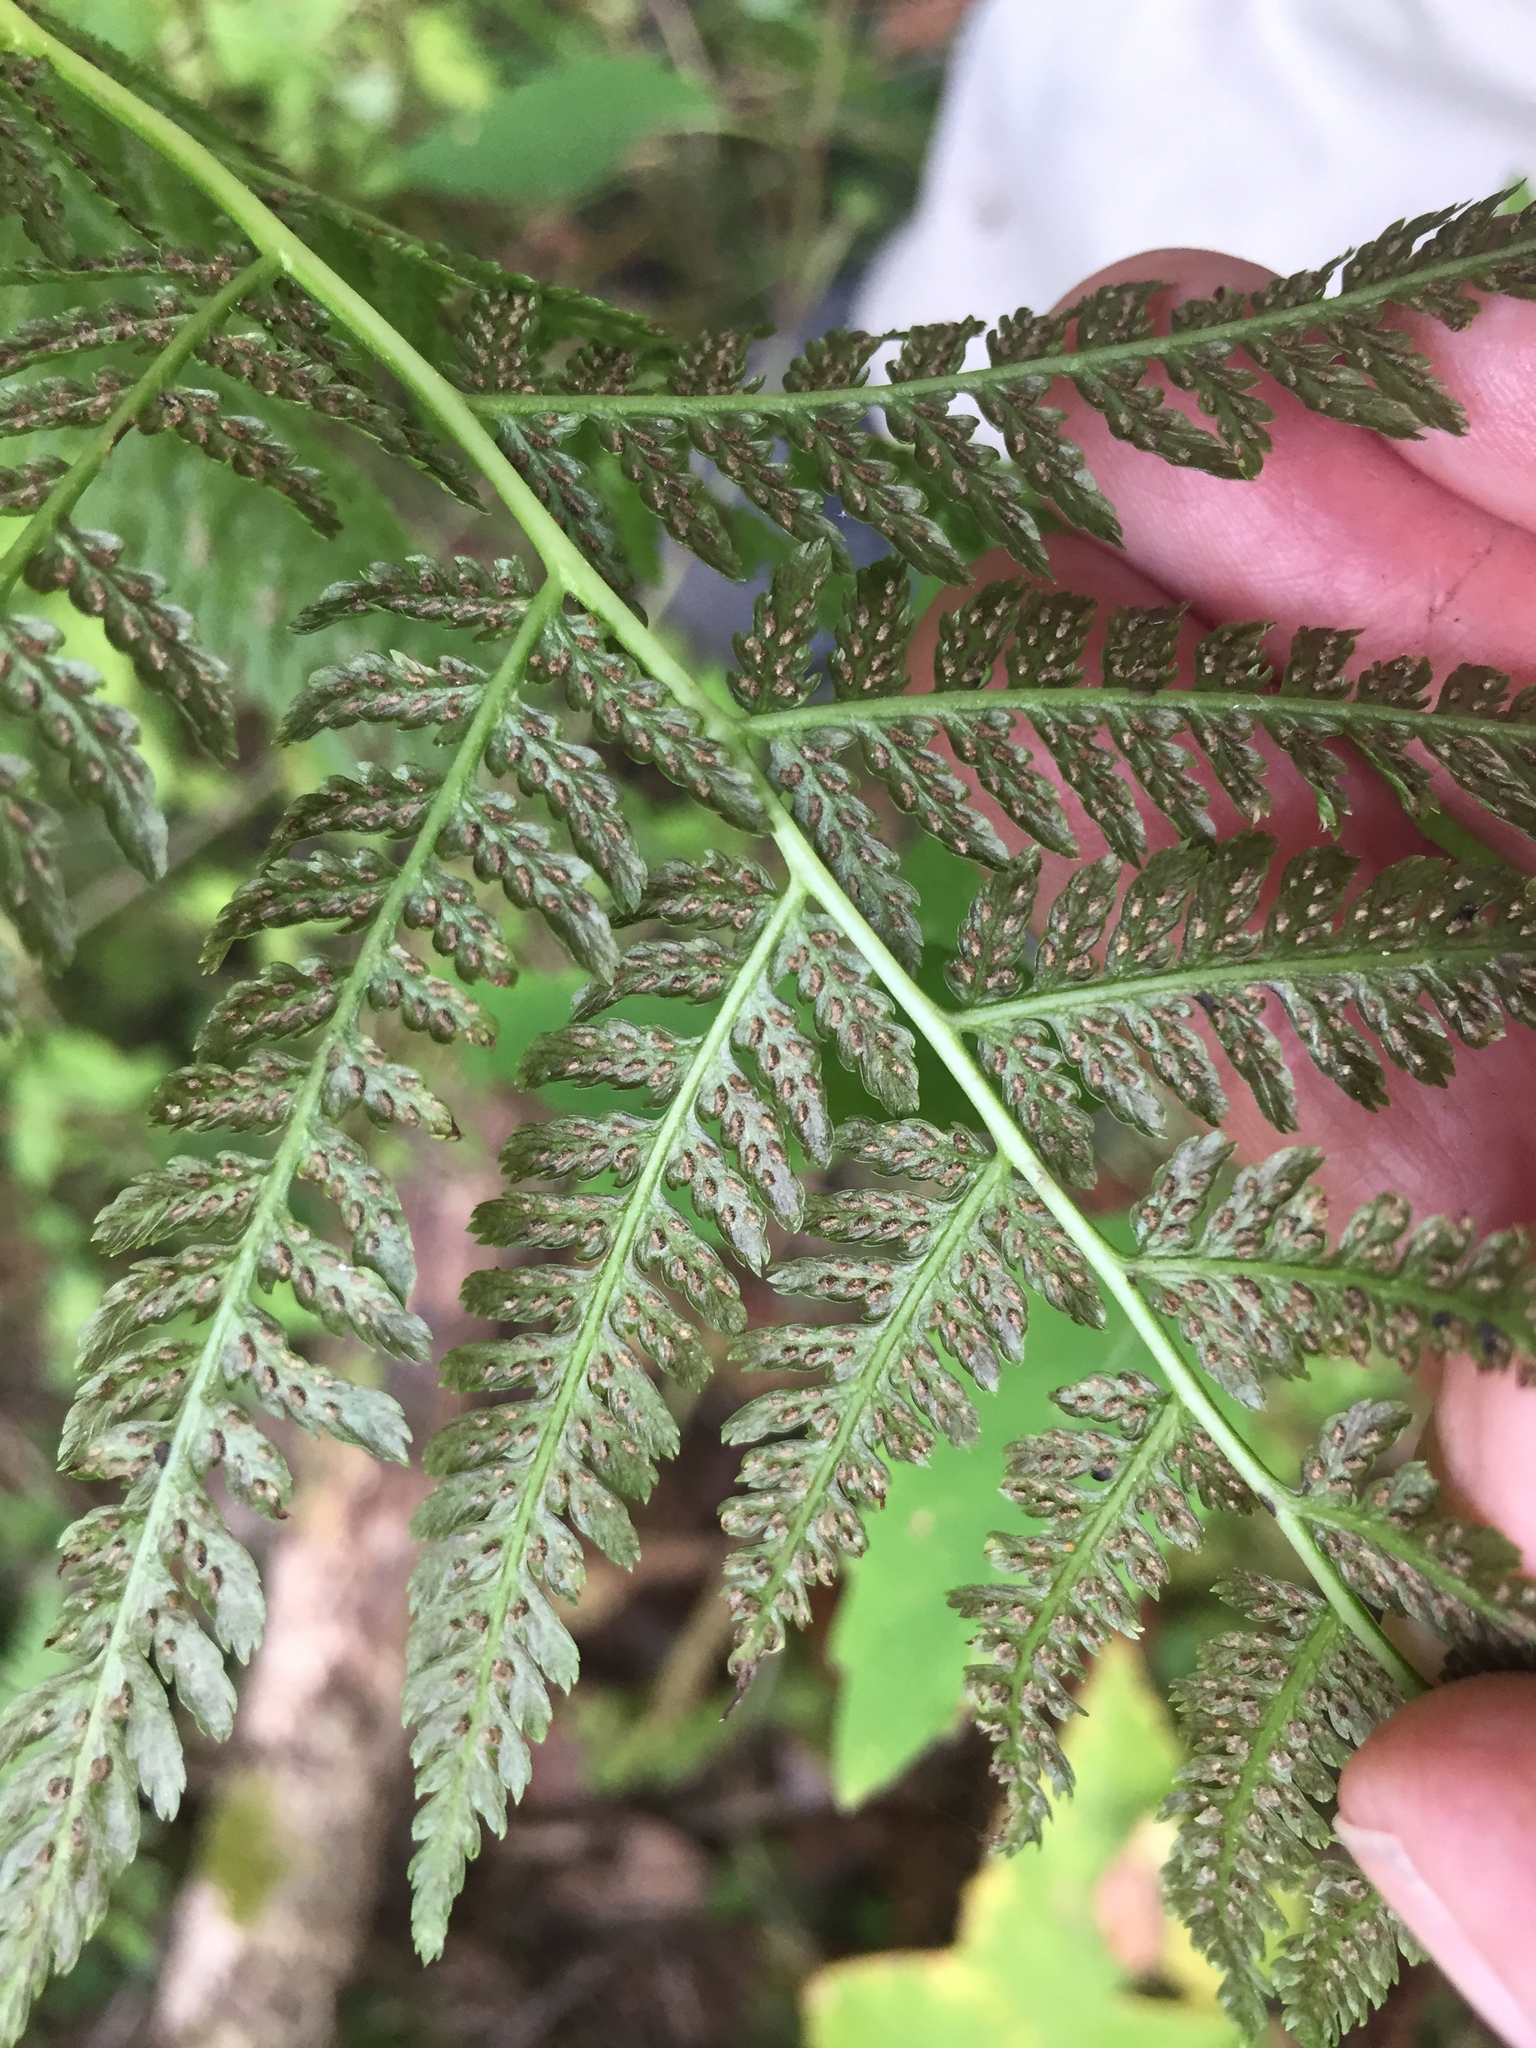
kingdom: Plantae
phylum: Tracheophyta
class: Polypodiopsida
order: Polypodiales
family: Athyriaceae
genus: Athyrium
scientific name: Athyrium angustum
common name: Northern lady fern
